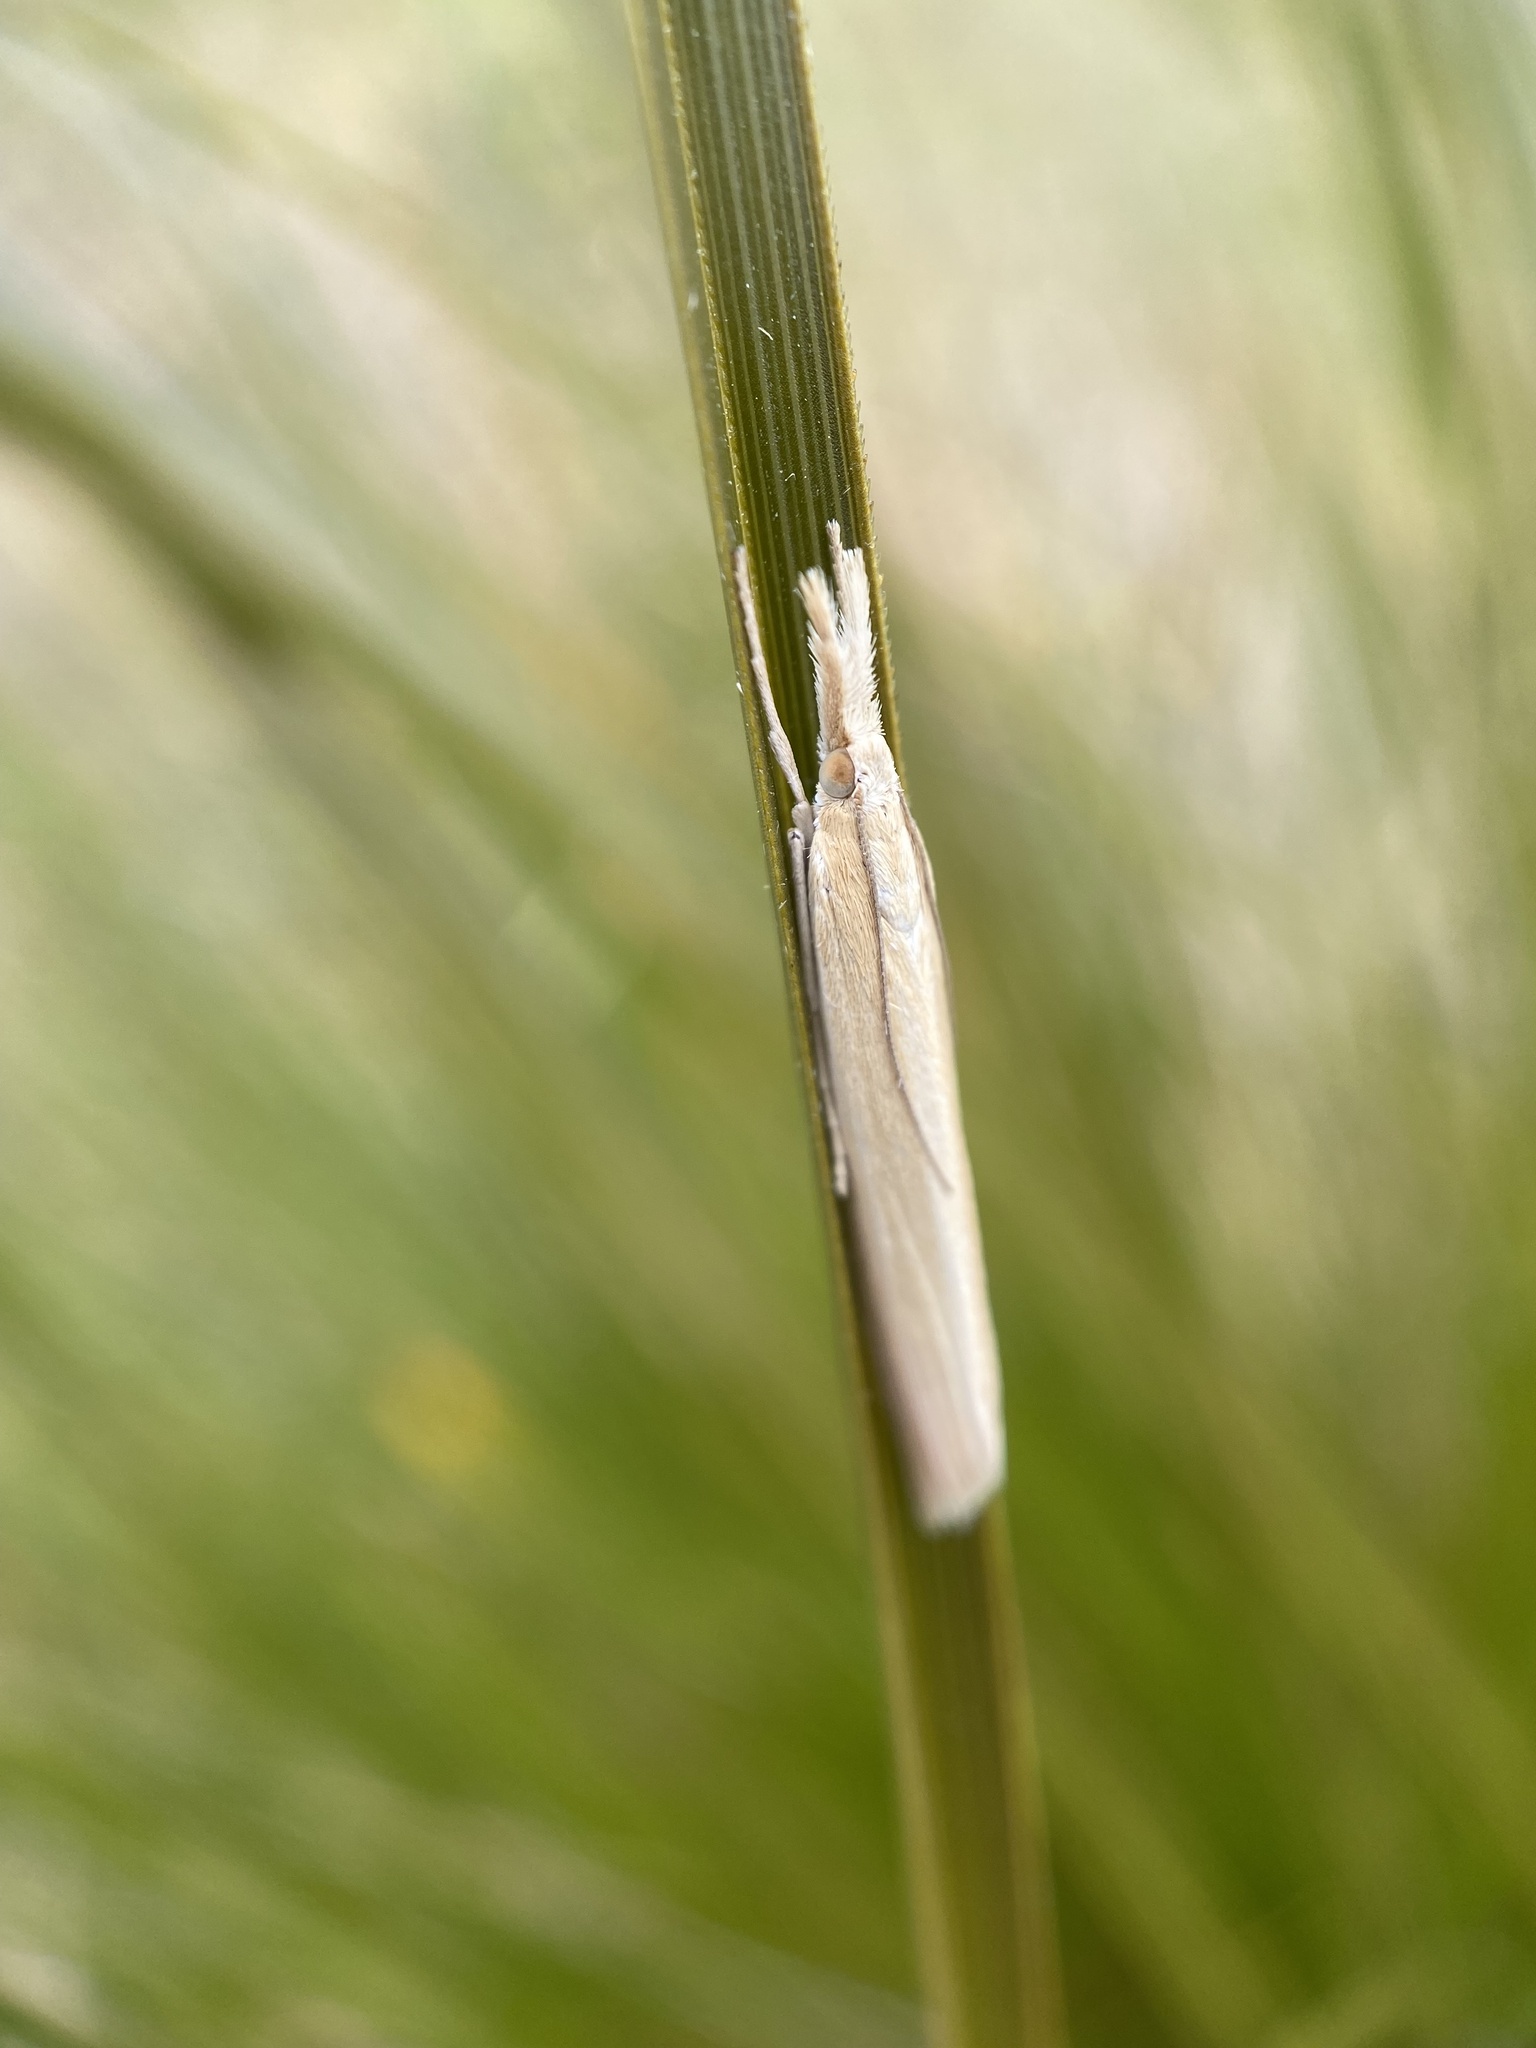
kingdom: Animalia
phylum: Arthropoda
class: Insecta
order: Lepidoptera
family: Crambidae
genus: Orocrambus
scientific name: Orocrambus angustipennis
